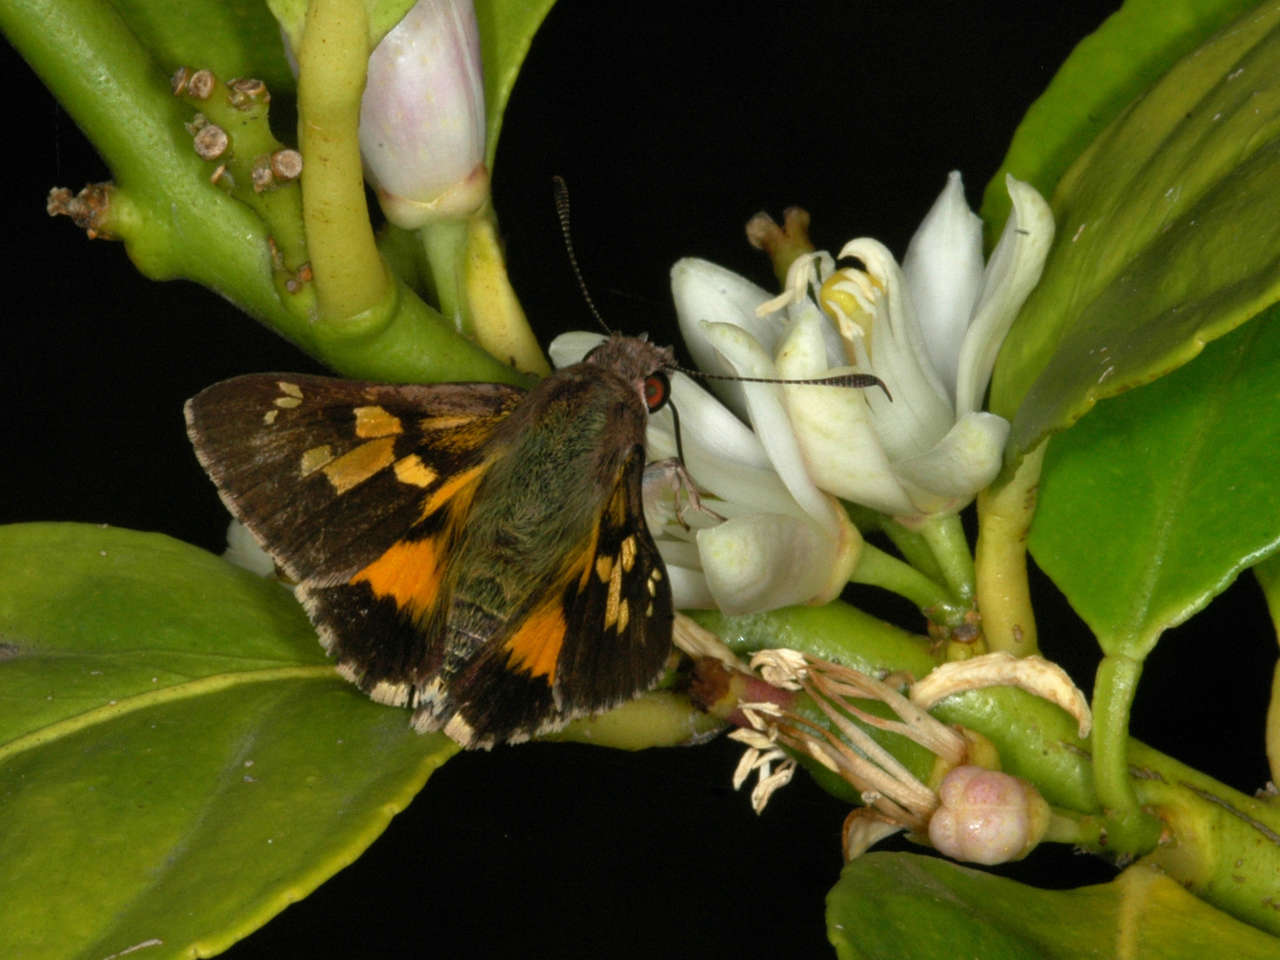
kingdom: Animalia
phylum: Arthropoda
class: Insecta
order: Lepidoptera
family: Hesperiidae
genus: Trapezites
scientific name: Trapezites phigalioides
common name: Montane ochre
